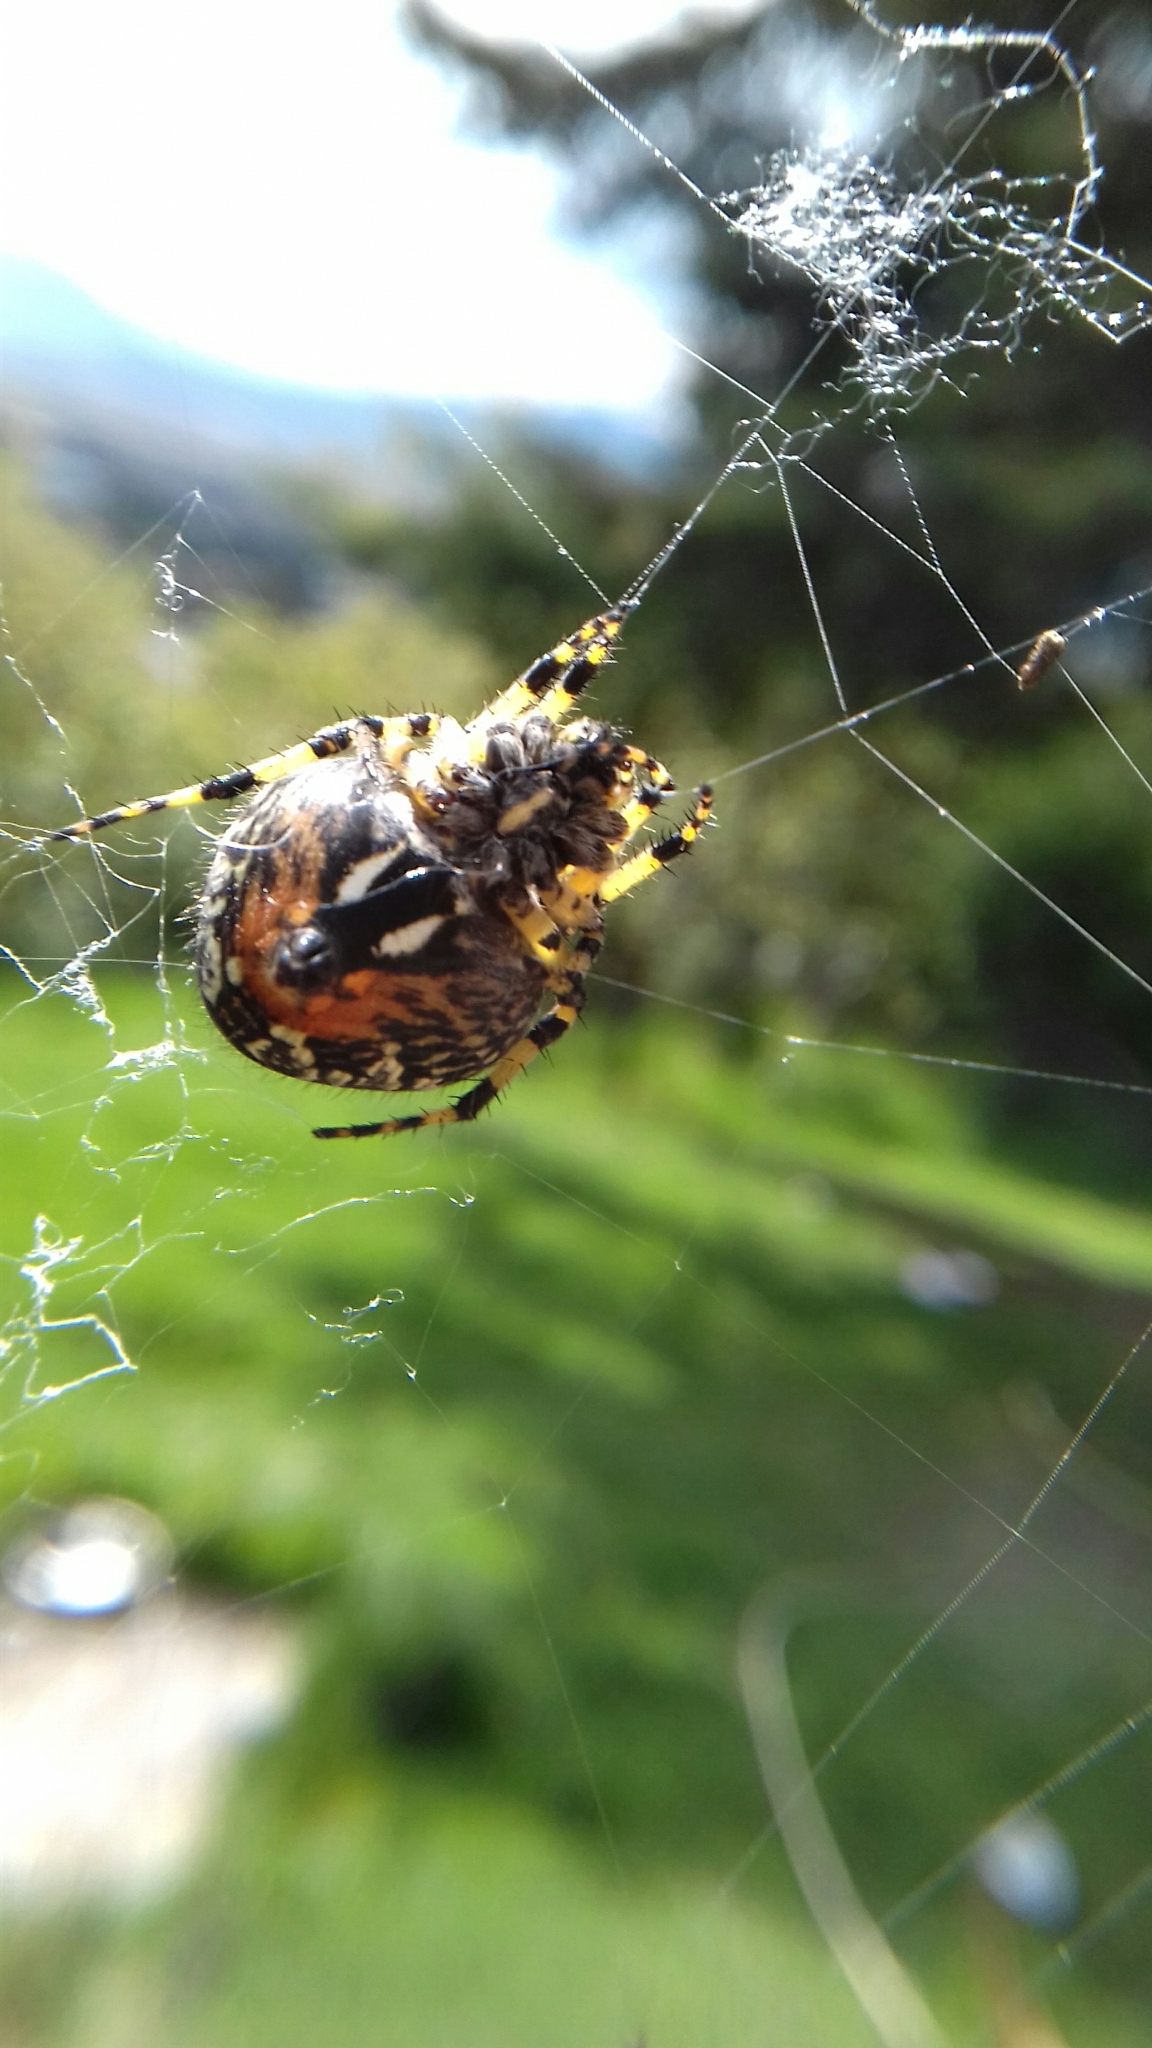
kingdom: Animalia
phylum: Arthropoda
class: Arachnida
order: Araneae
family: Araneidae
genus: Neoscona
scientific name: Neoscona orizabensis
